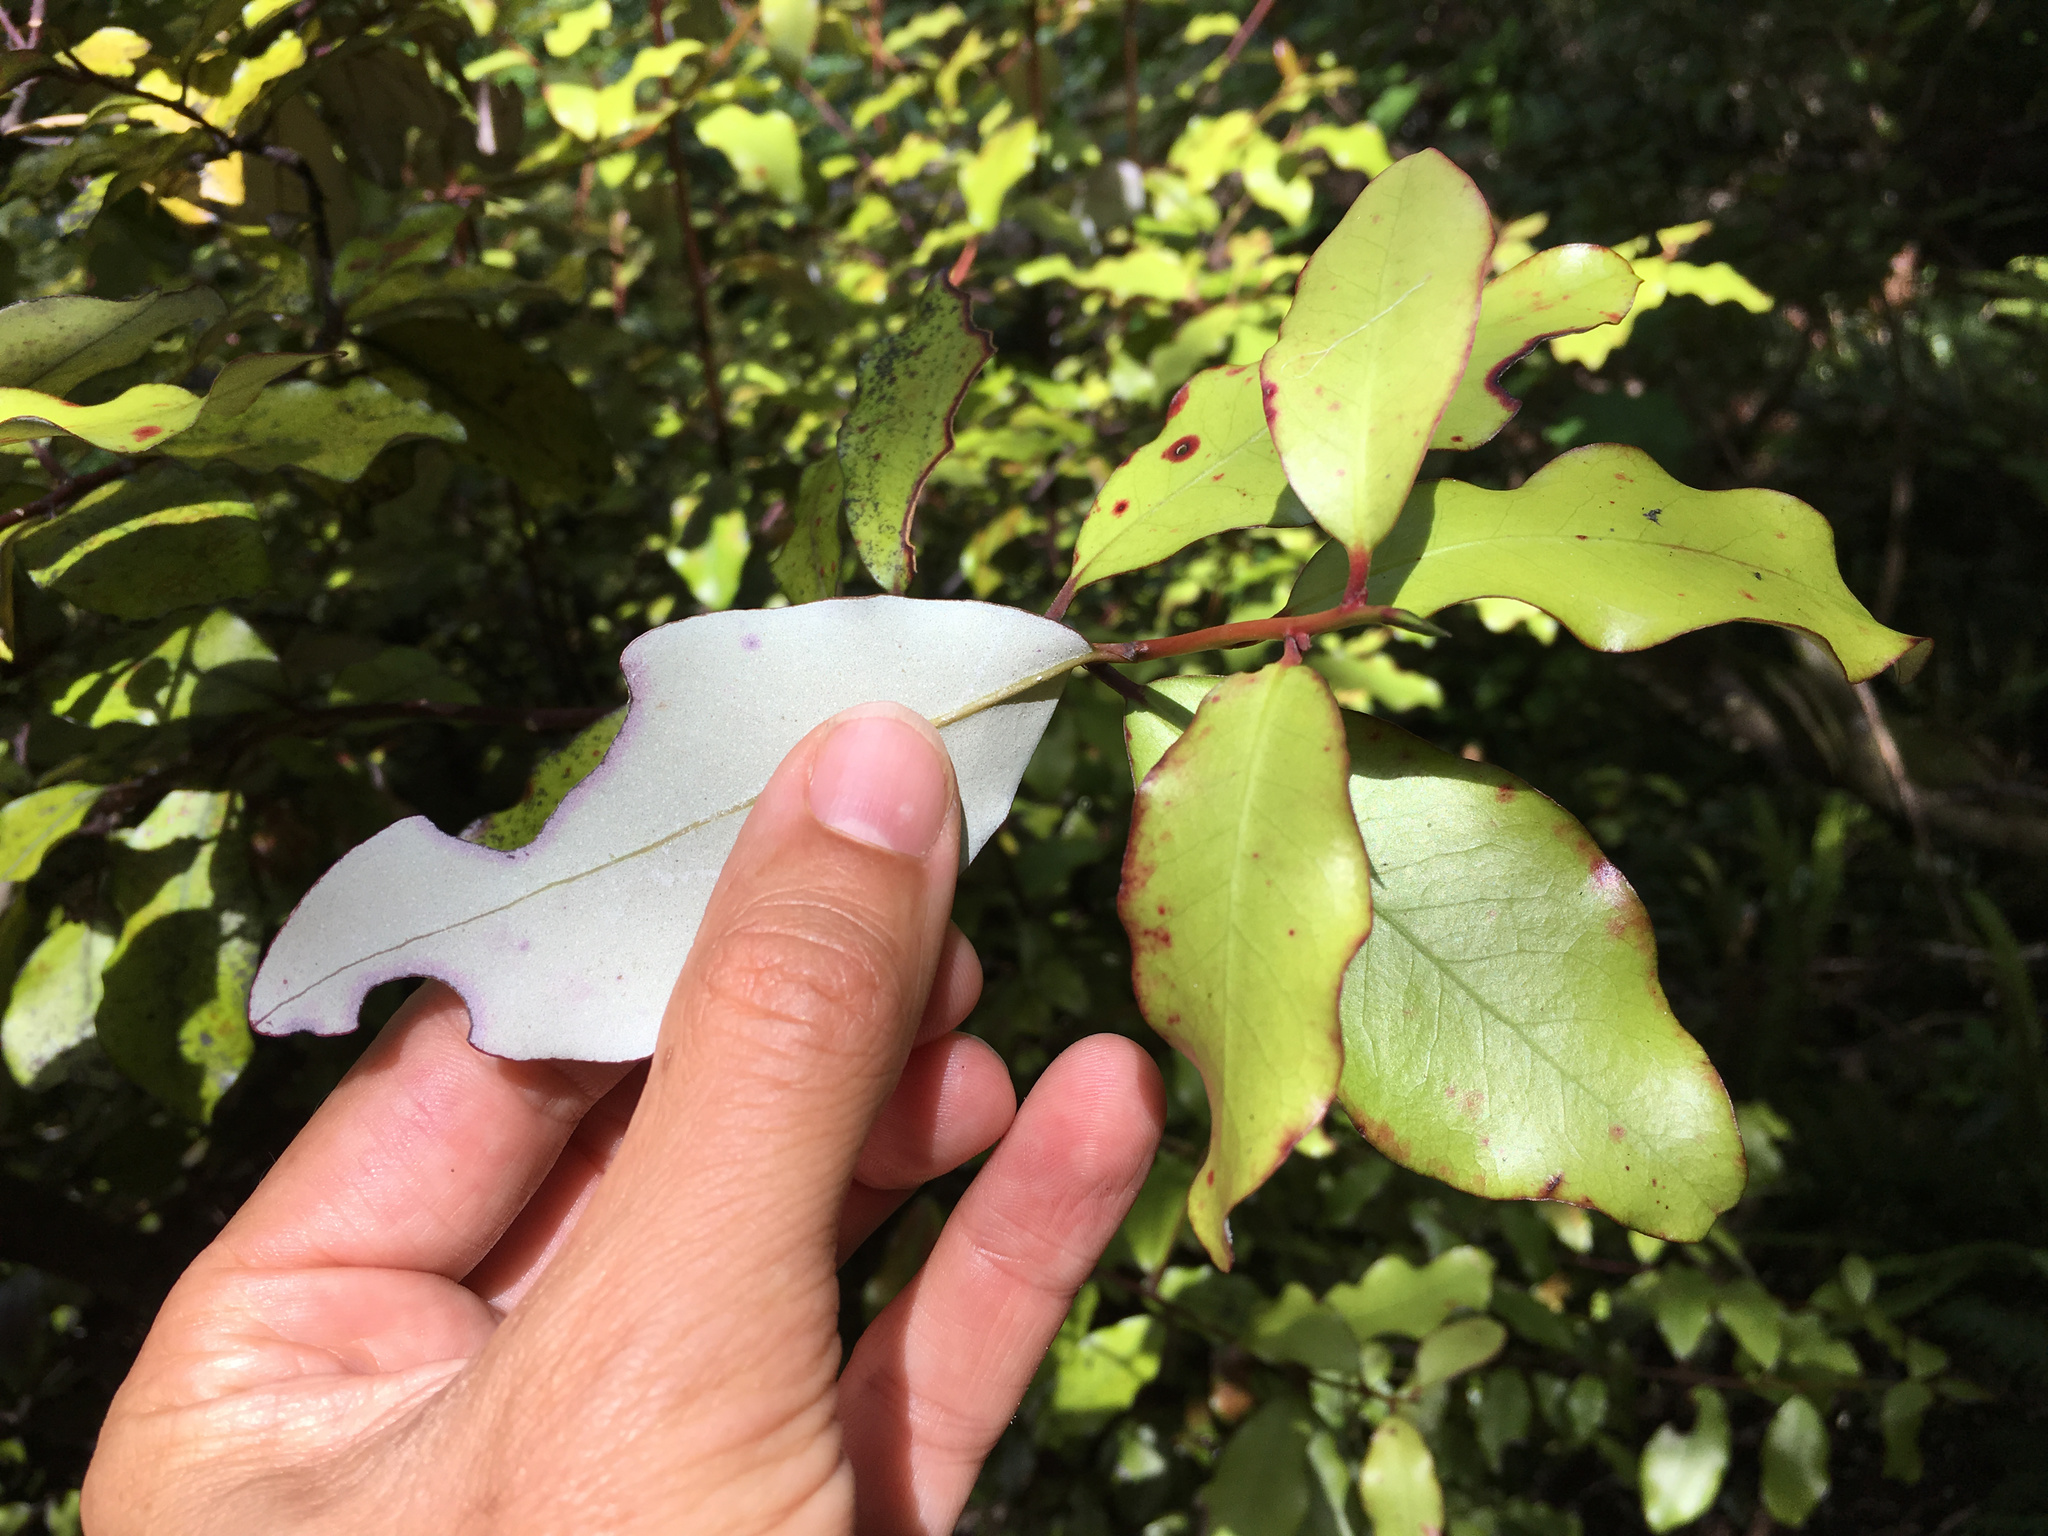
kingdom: Plantae
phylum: Tracheophyta
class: Magnoliopsida
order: Canellales
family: Winteraceae
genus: Pseudowintera
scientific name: Pseudowintera colorata
